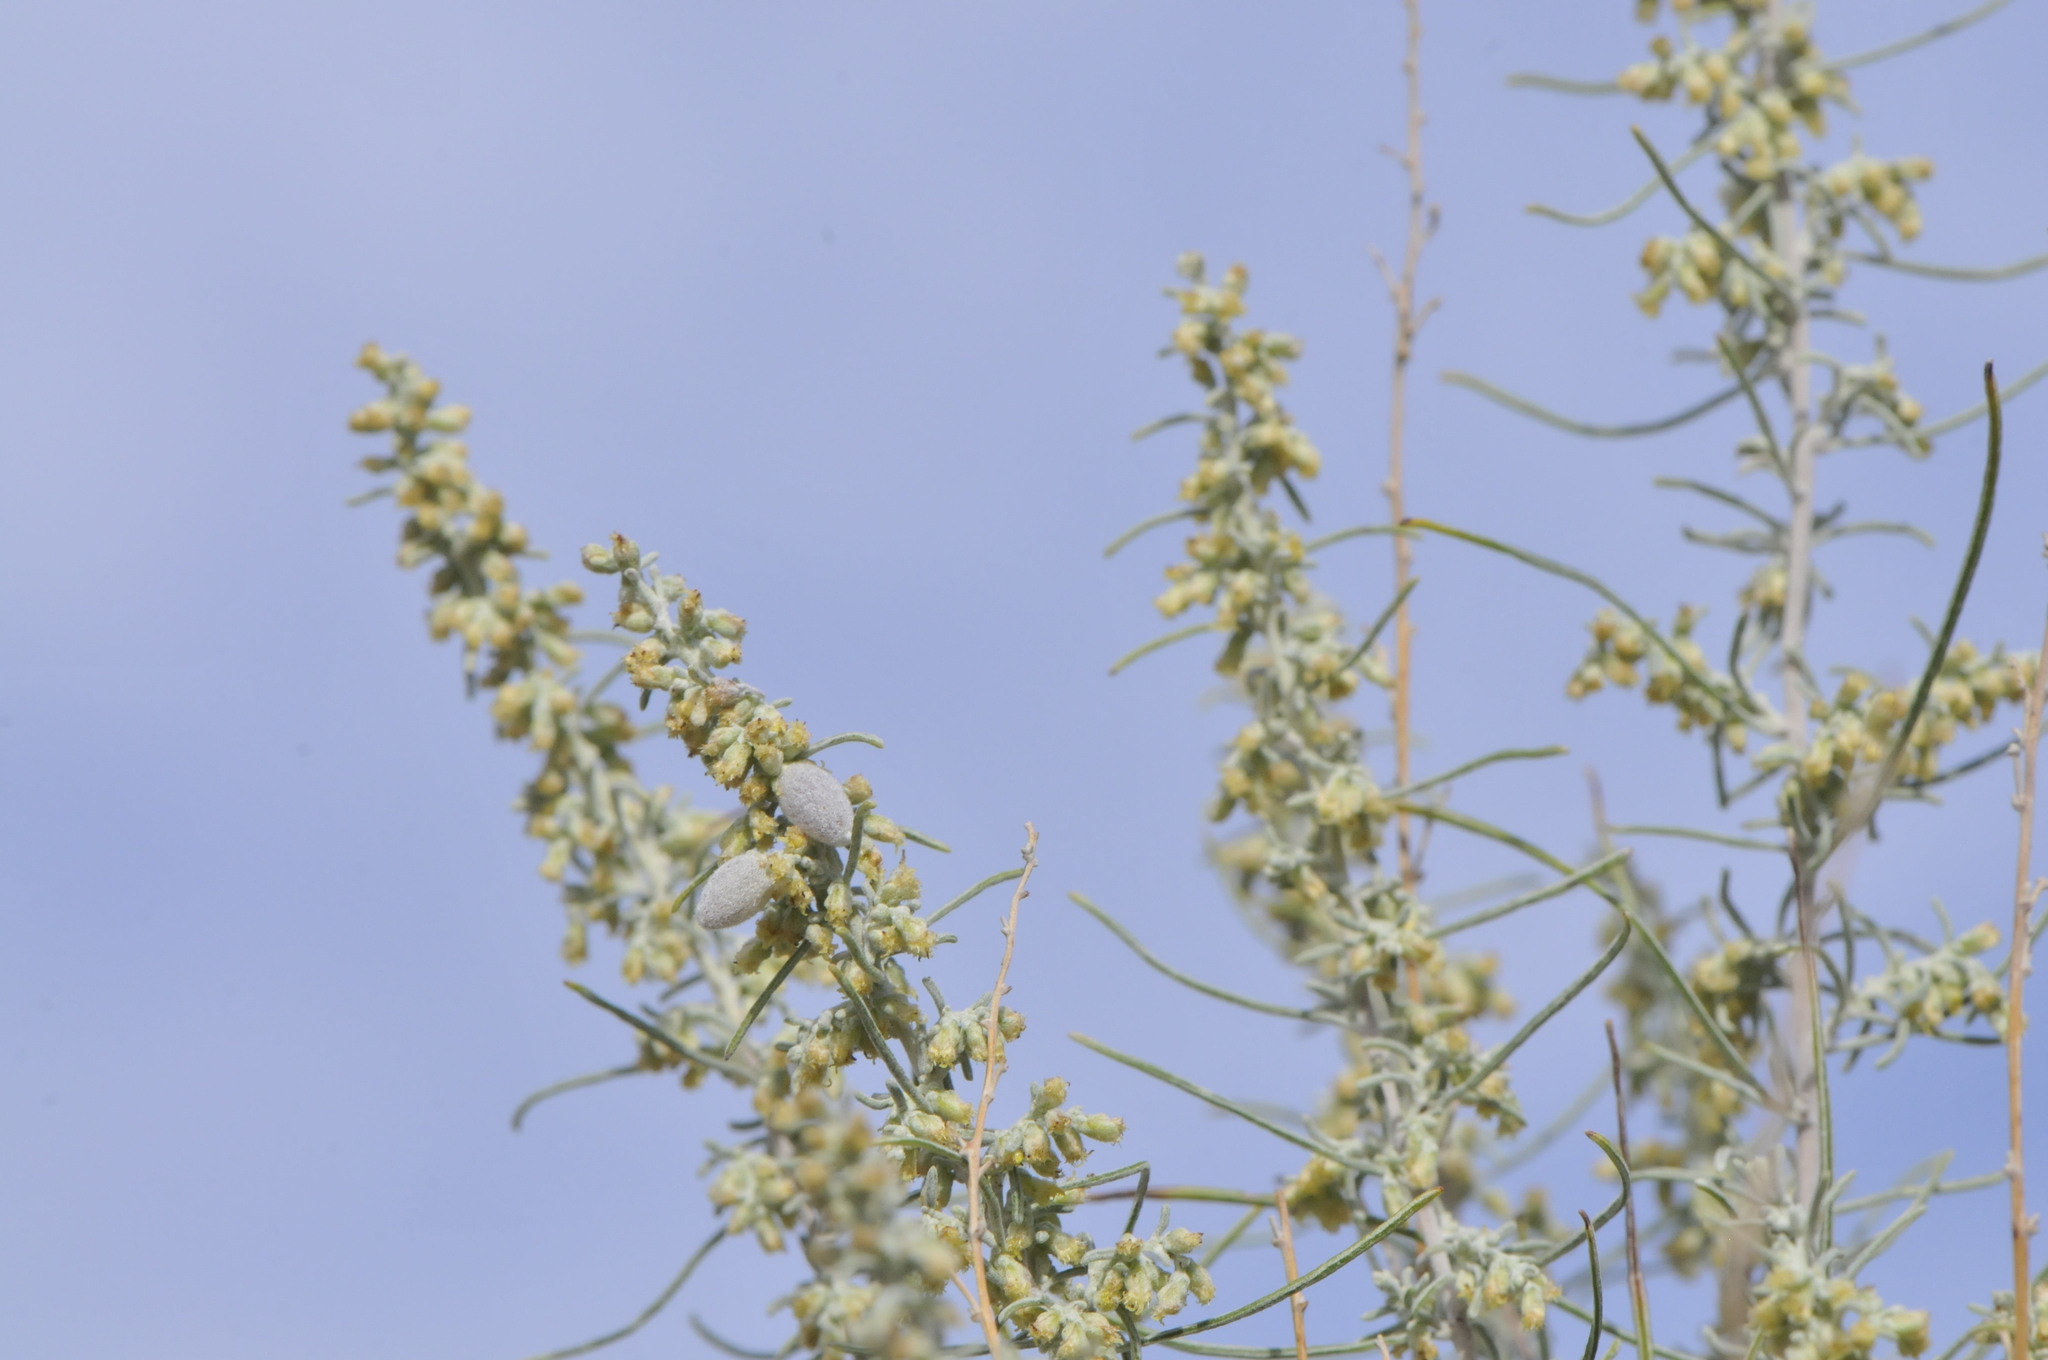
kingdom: Plantae
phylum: Tracheophyta
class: Magnoliopsida
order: Asterales
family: Asteraceae
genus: Artemisia
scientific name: Artemisia filifolia
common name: Sand-sage
